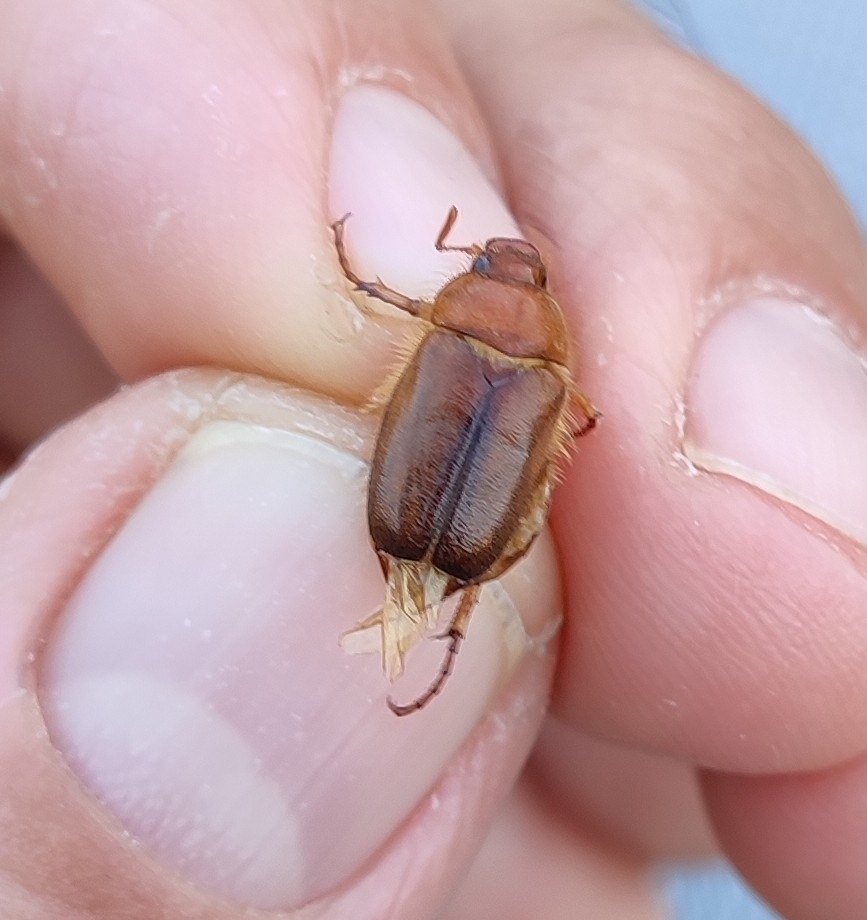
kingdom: Animalia
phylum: Arthropoda
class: Insecta
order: Coleoptera
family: Scarabaeidae
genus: Amphimallon
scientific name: Amphimallon assimile
